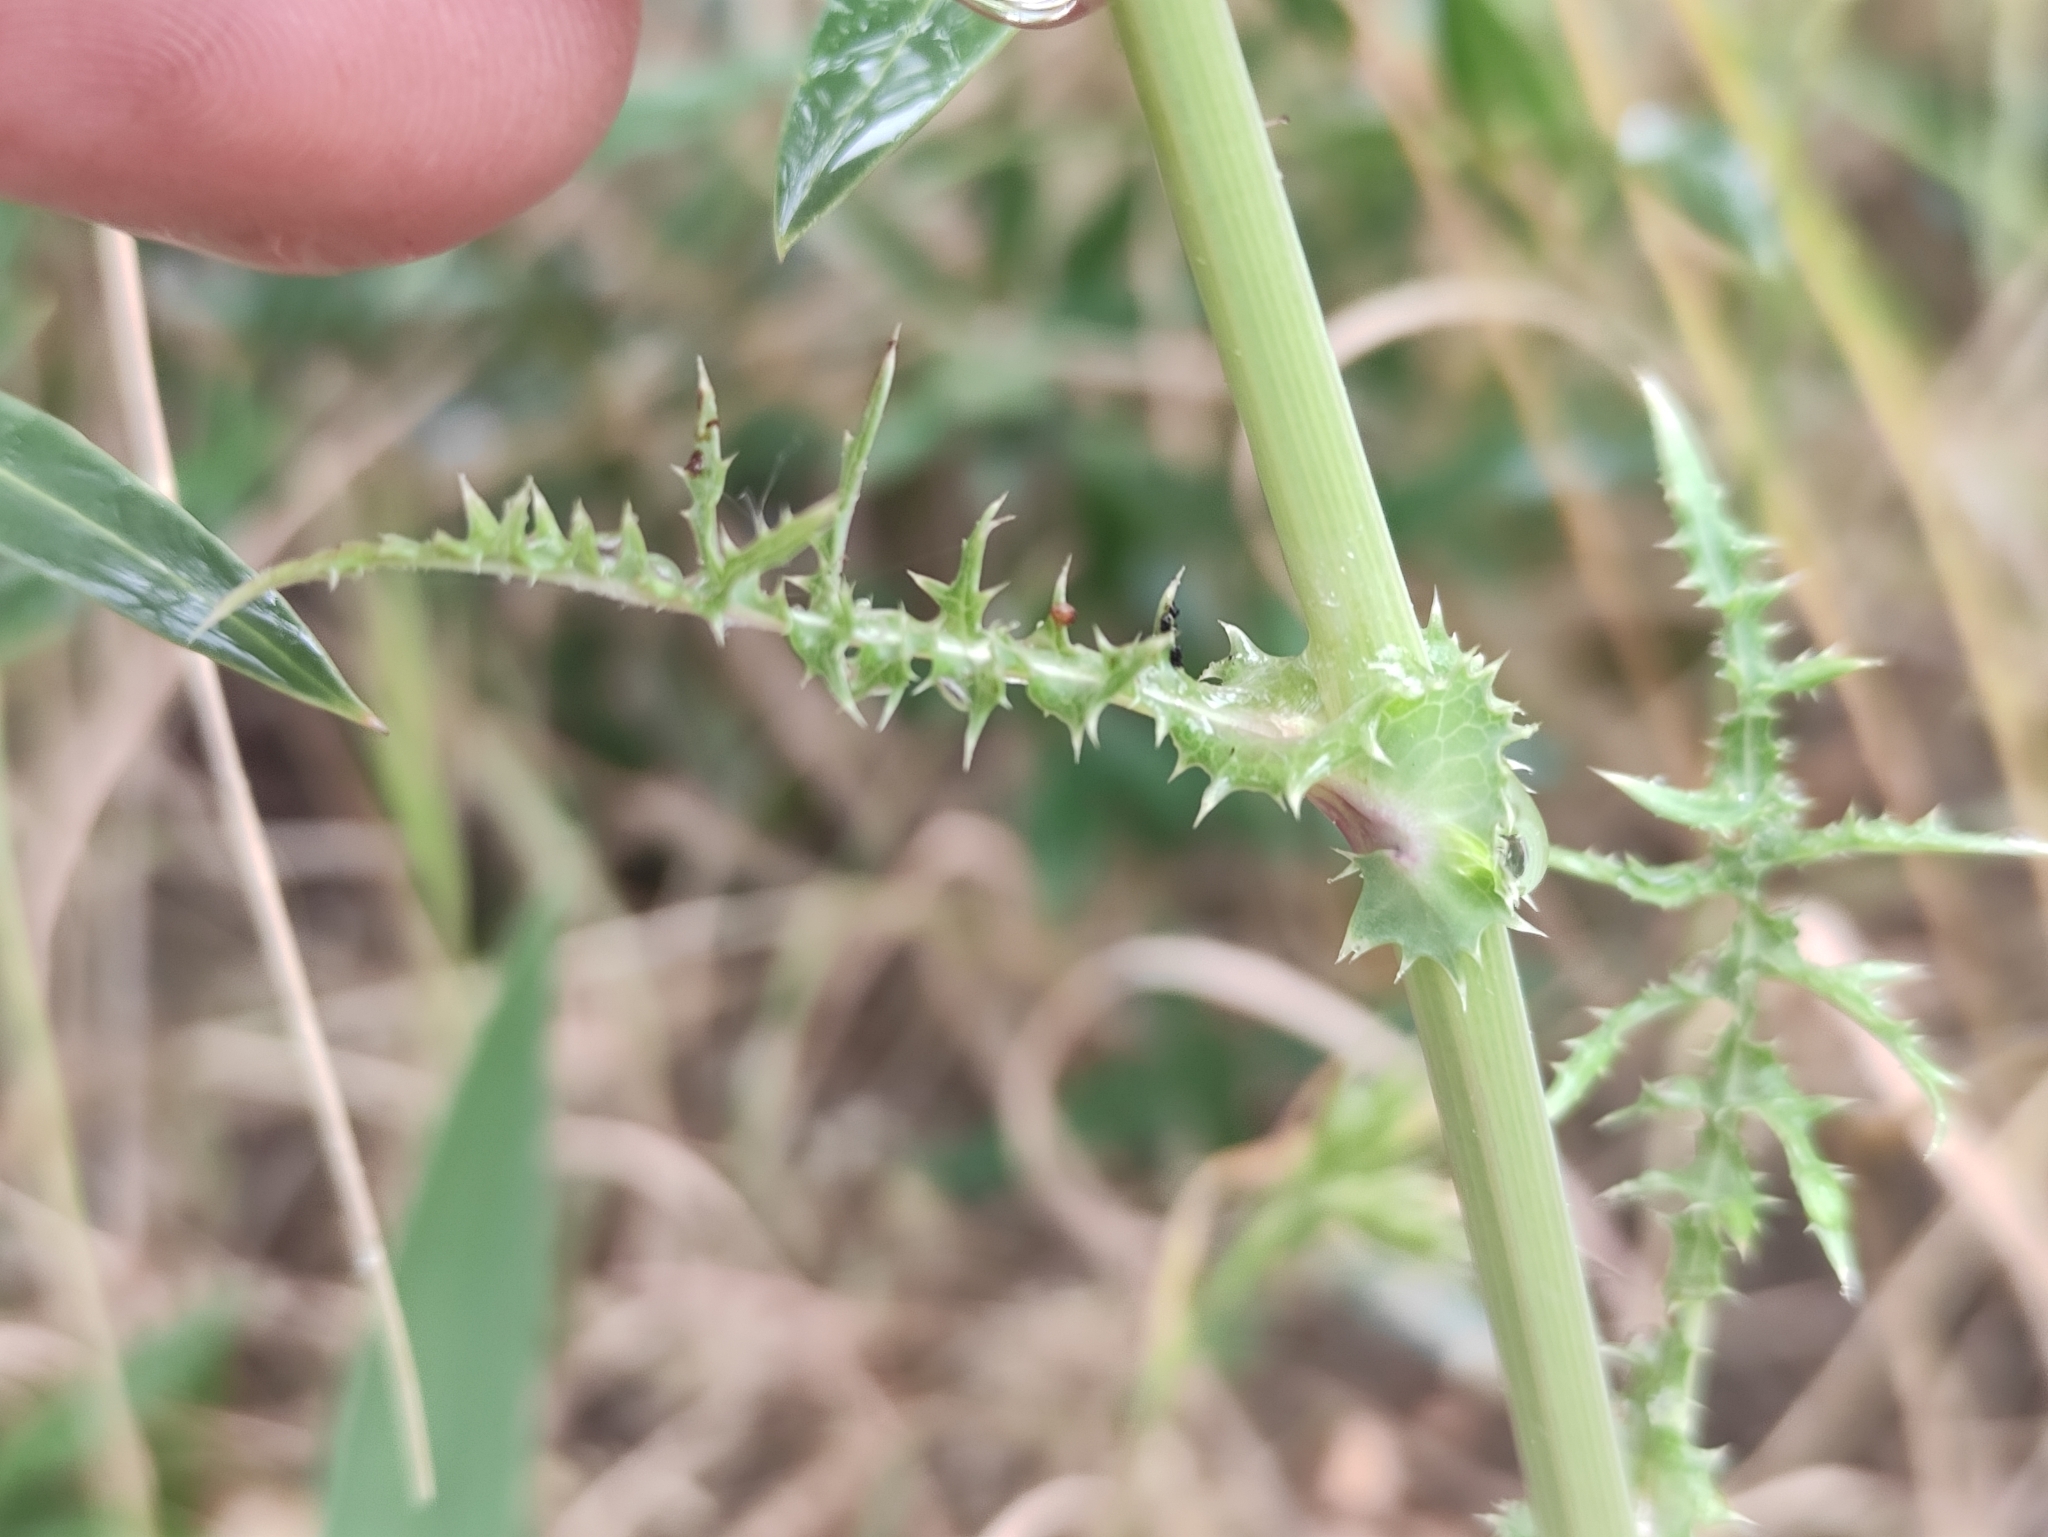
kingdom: Plantae
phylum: Tracheophyta
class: Magnoliopsida
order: Asterales
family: Asteraceae
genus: Sonchus
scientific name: Sonchus asper
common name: Prickly sow-thistle
